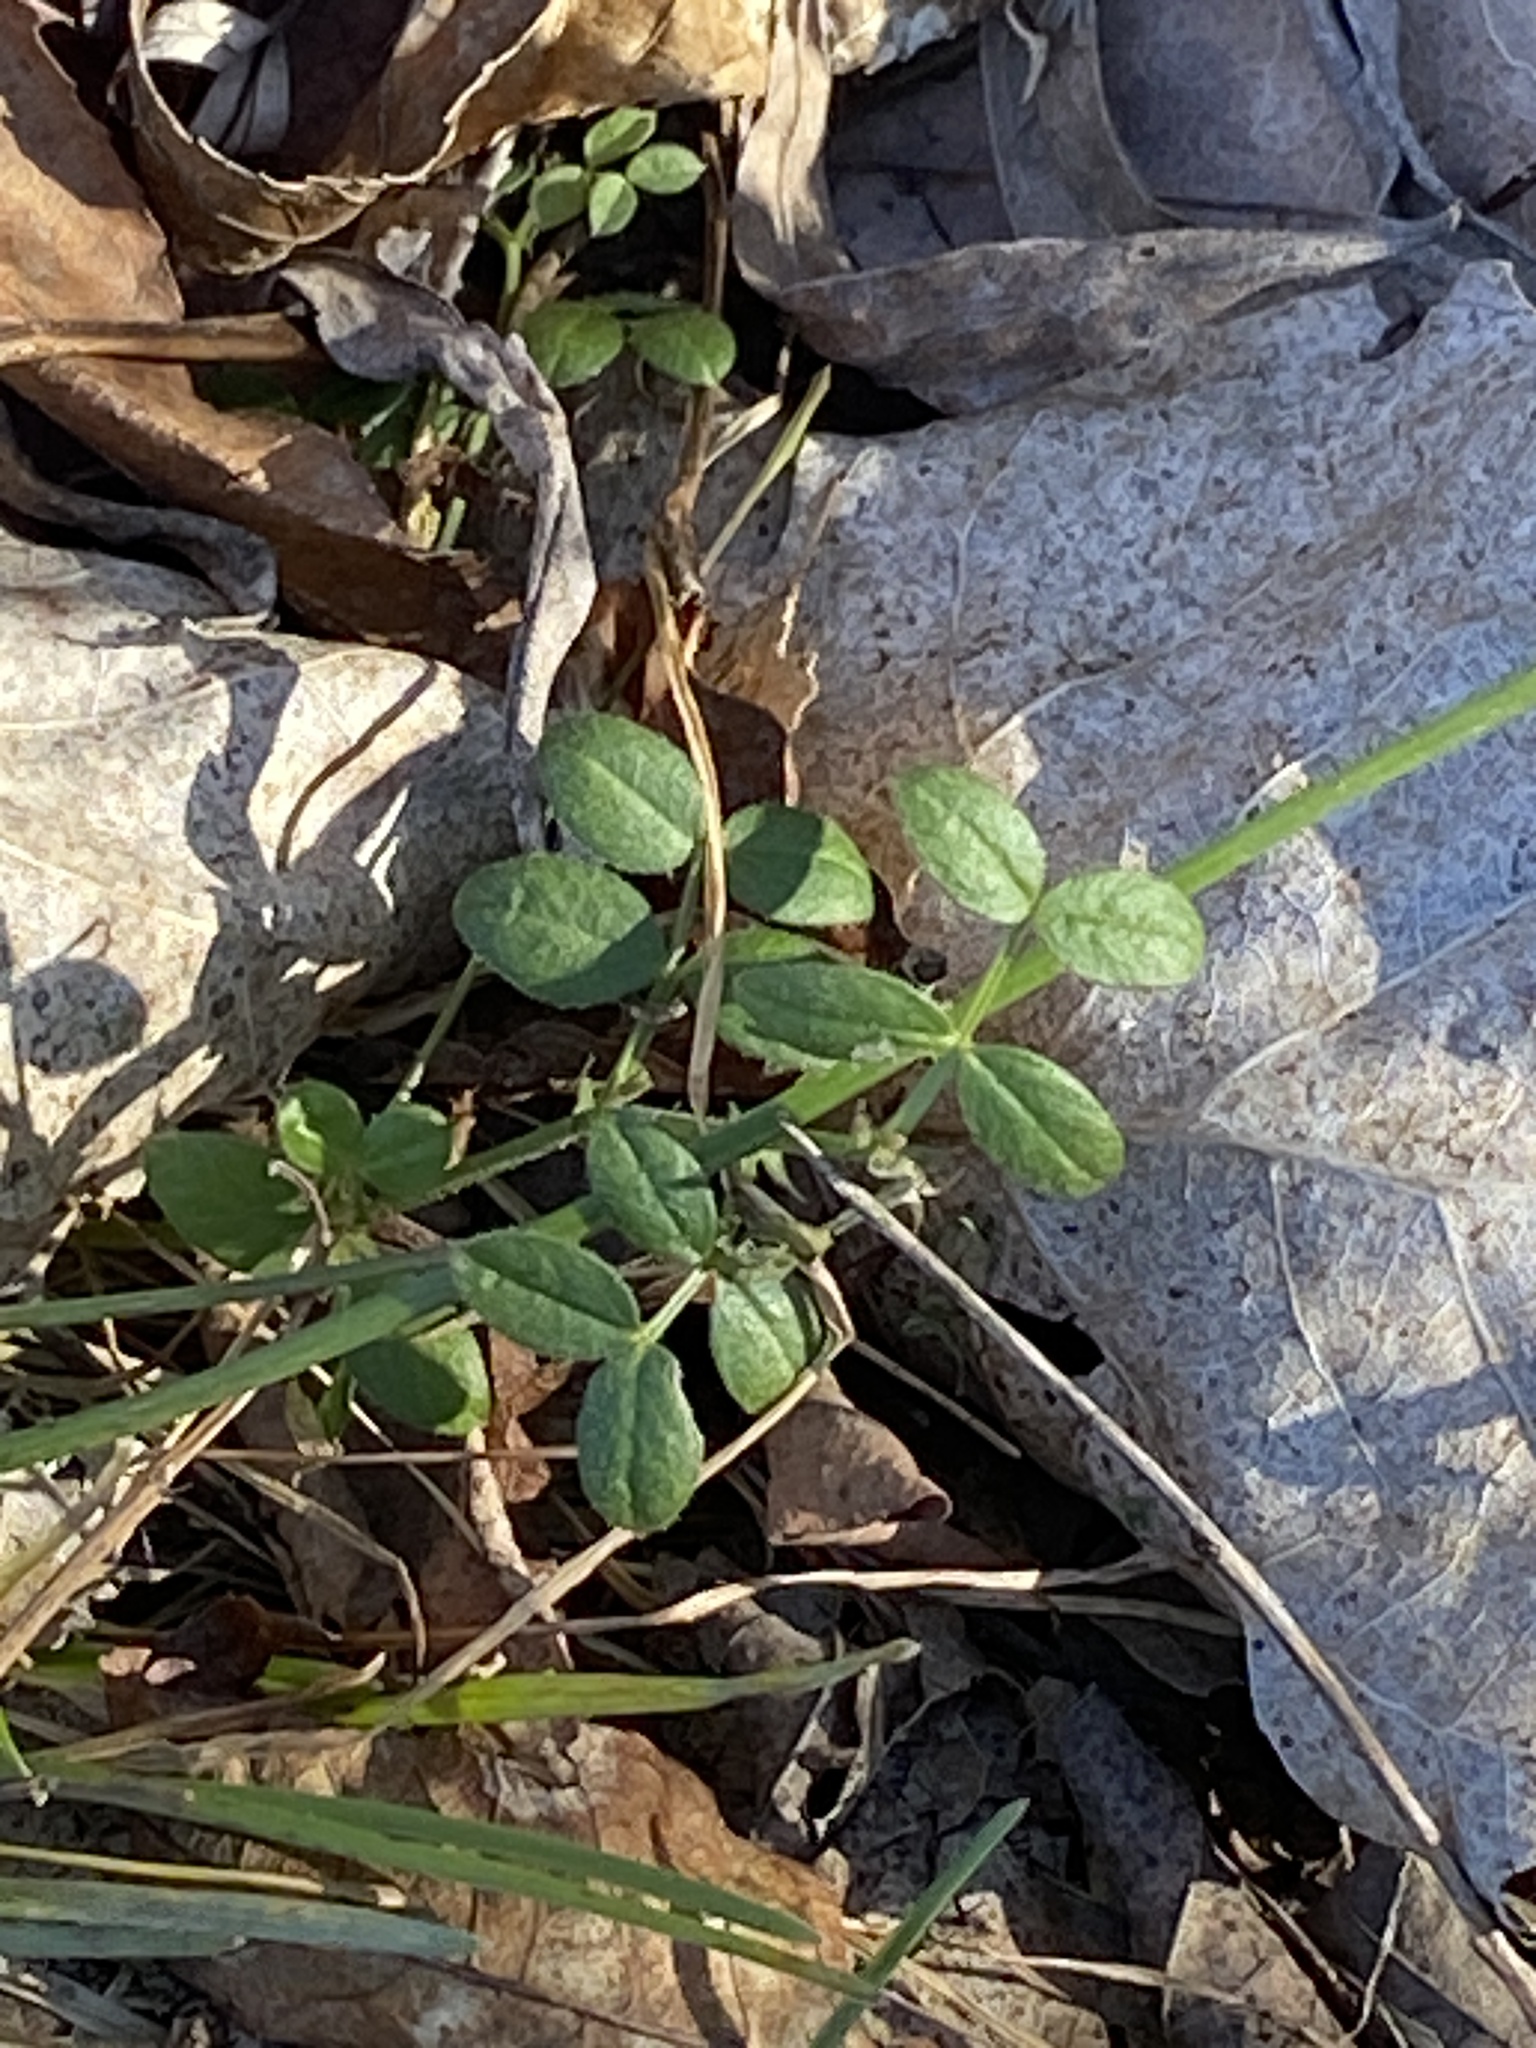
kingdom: Plantae
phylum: Tracheophyta
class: Magnoliopsida
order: Fabales
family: Fabaceae
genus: Coronilla
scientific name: Coronilla varia
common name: Crownvetch
